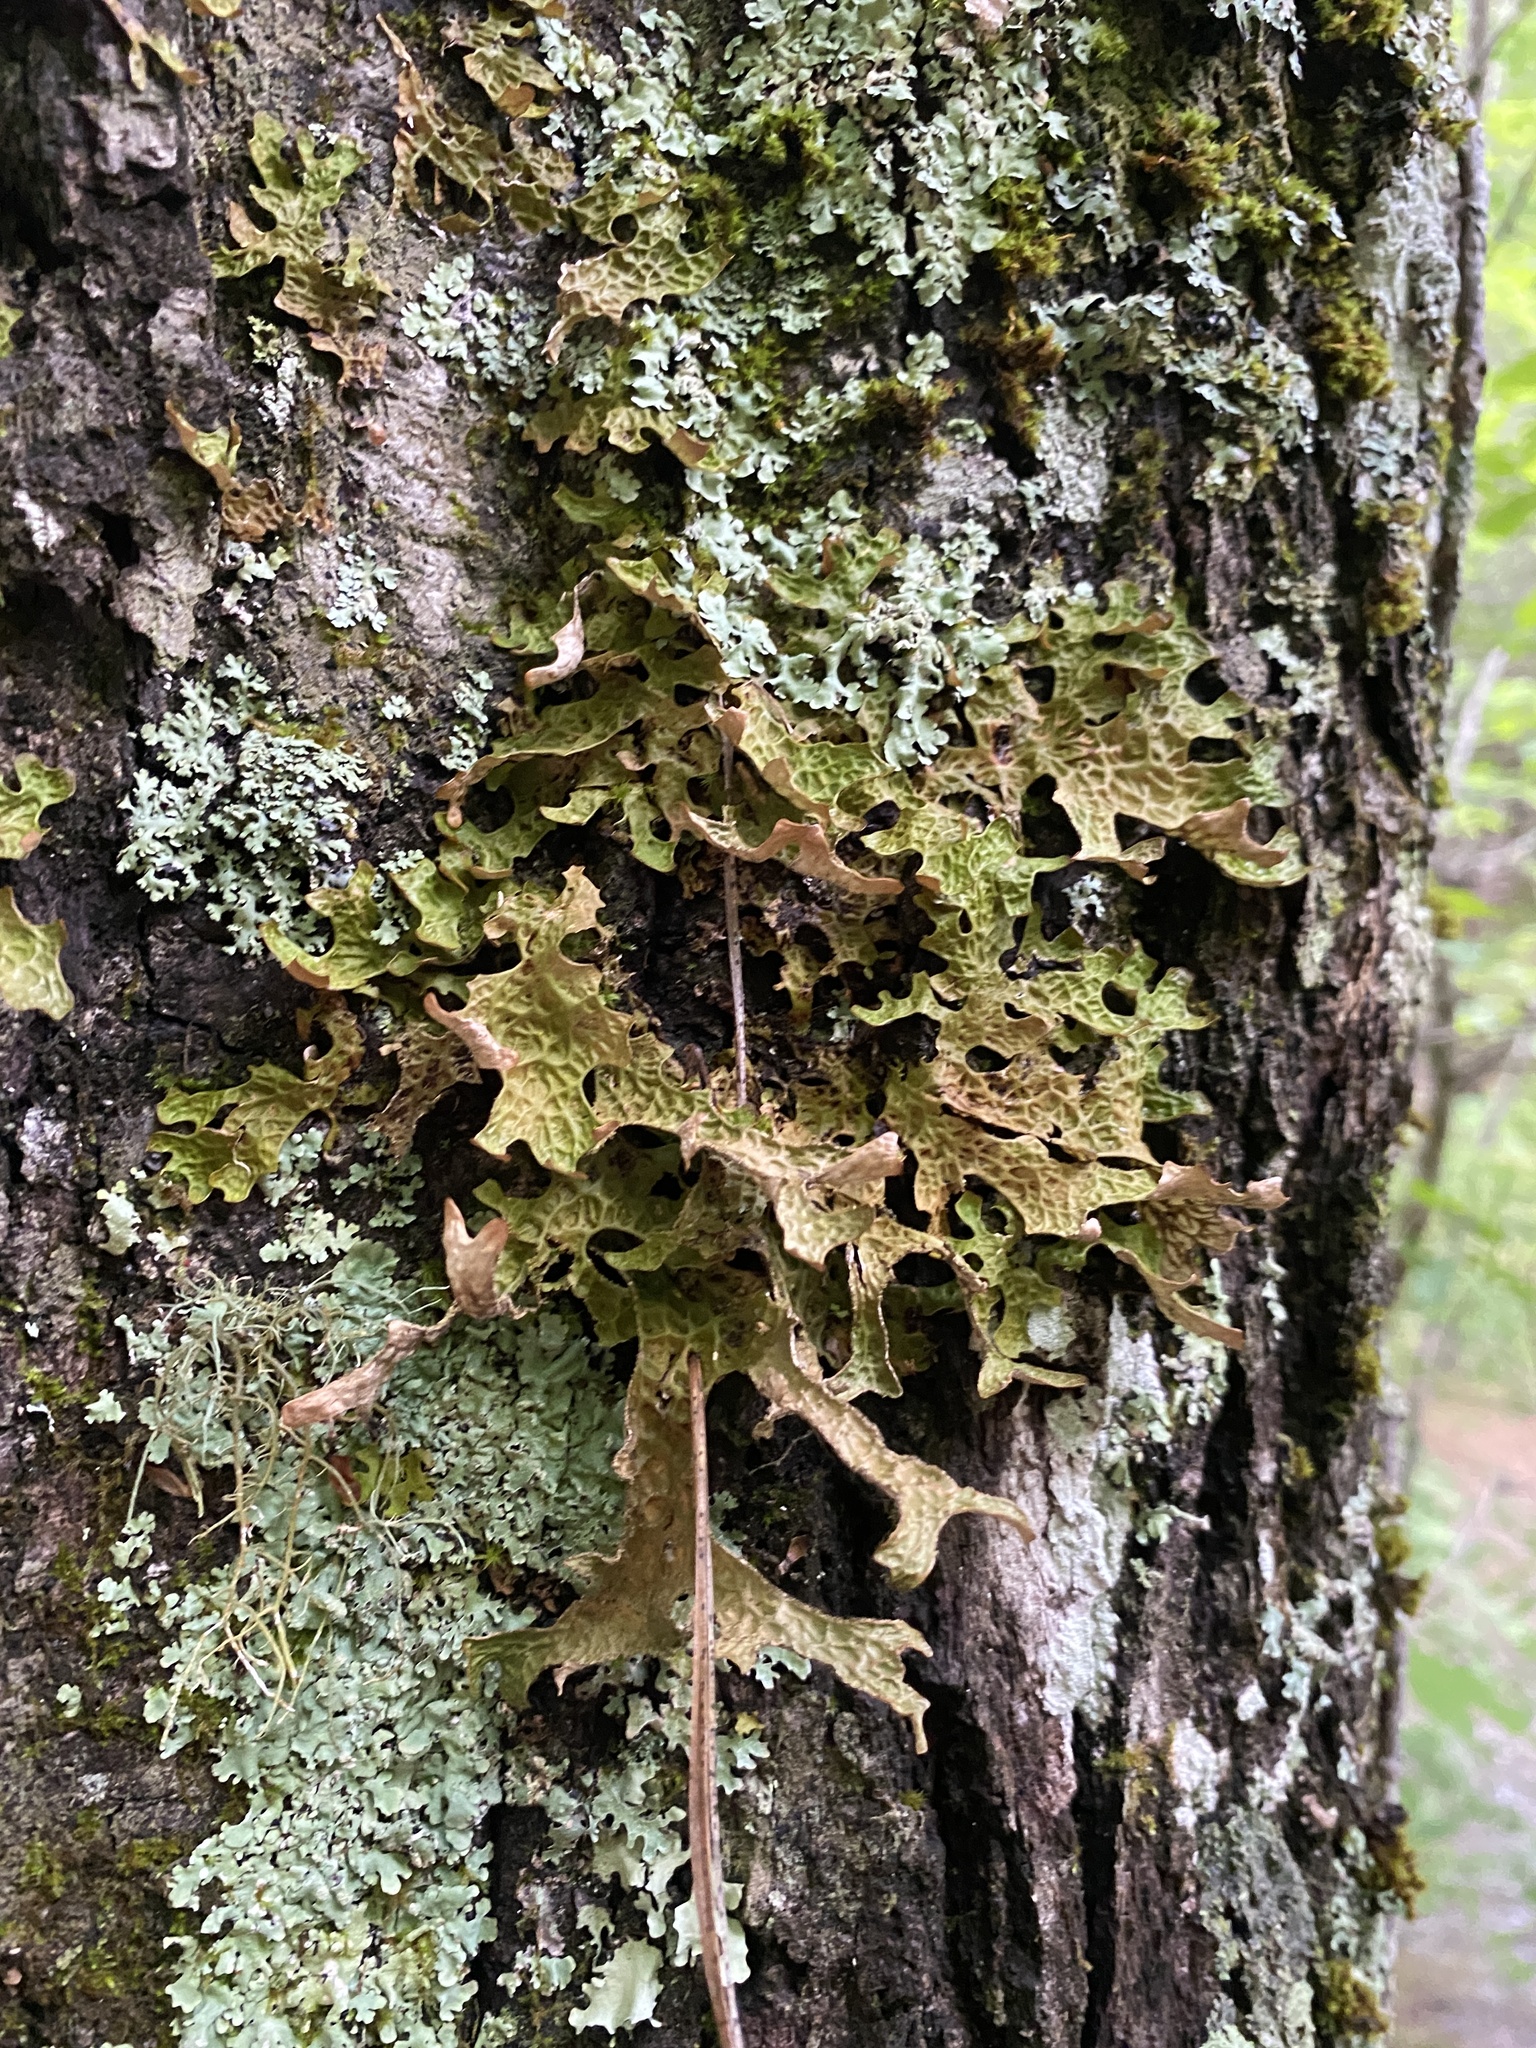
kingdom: Fungi
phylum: Ascomycota
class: Lecanoromycetes
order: Peltigerales
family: Lobariaceae
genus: Lobaria
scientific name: Lobaria pulmonaria
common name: Lungwort
